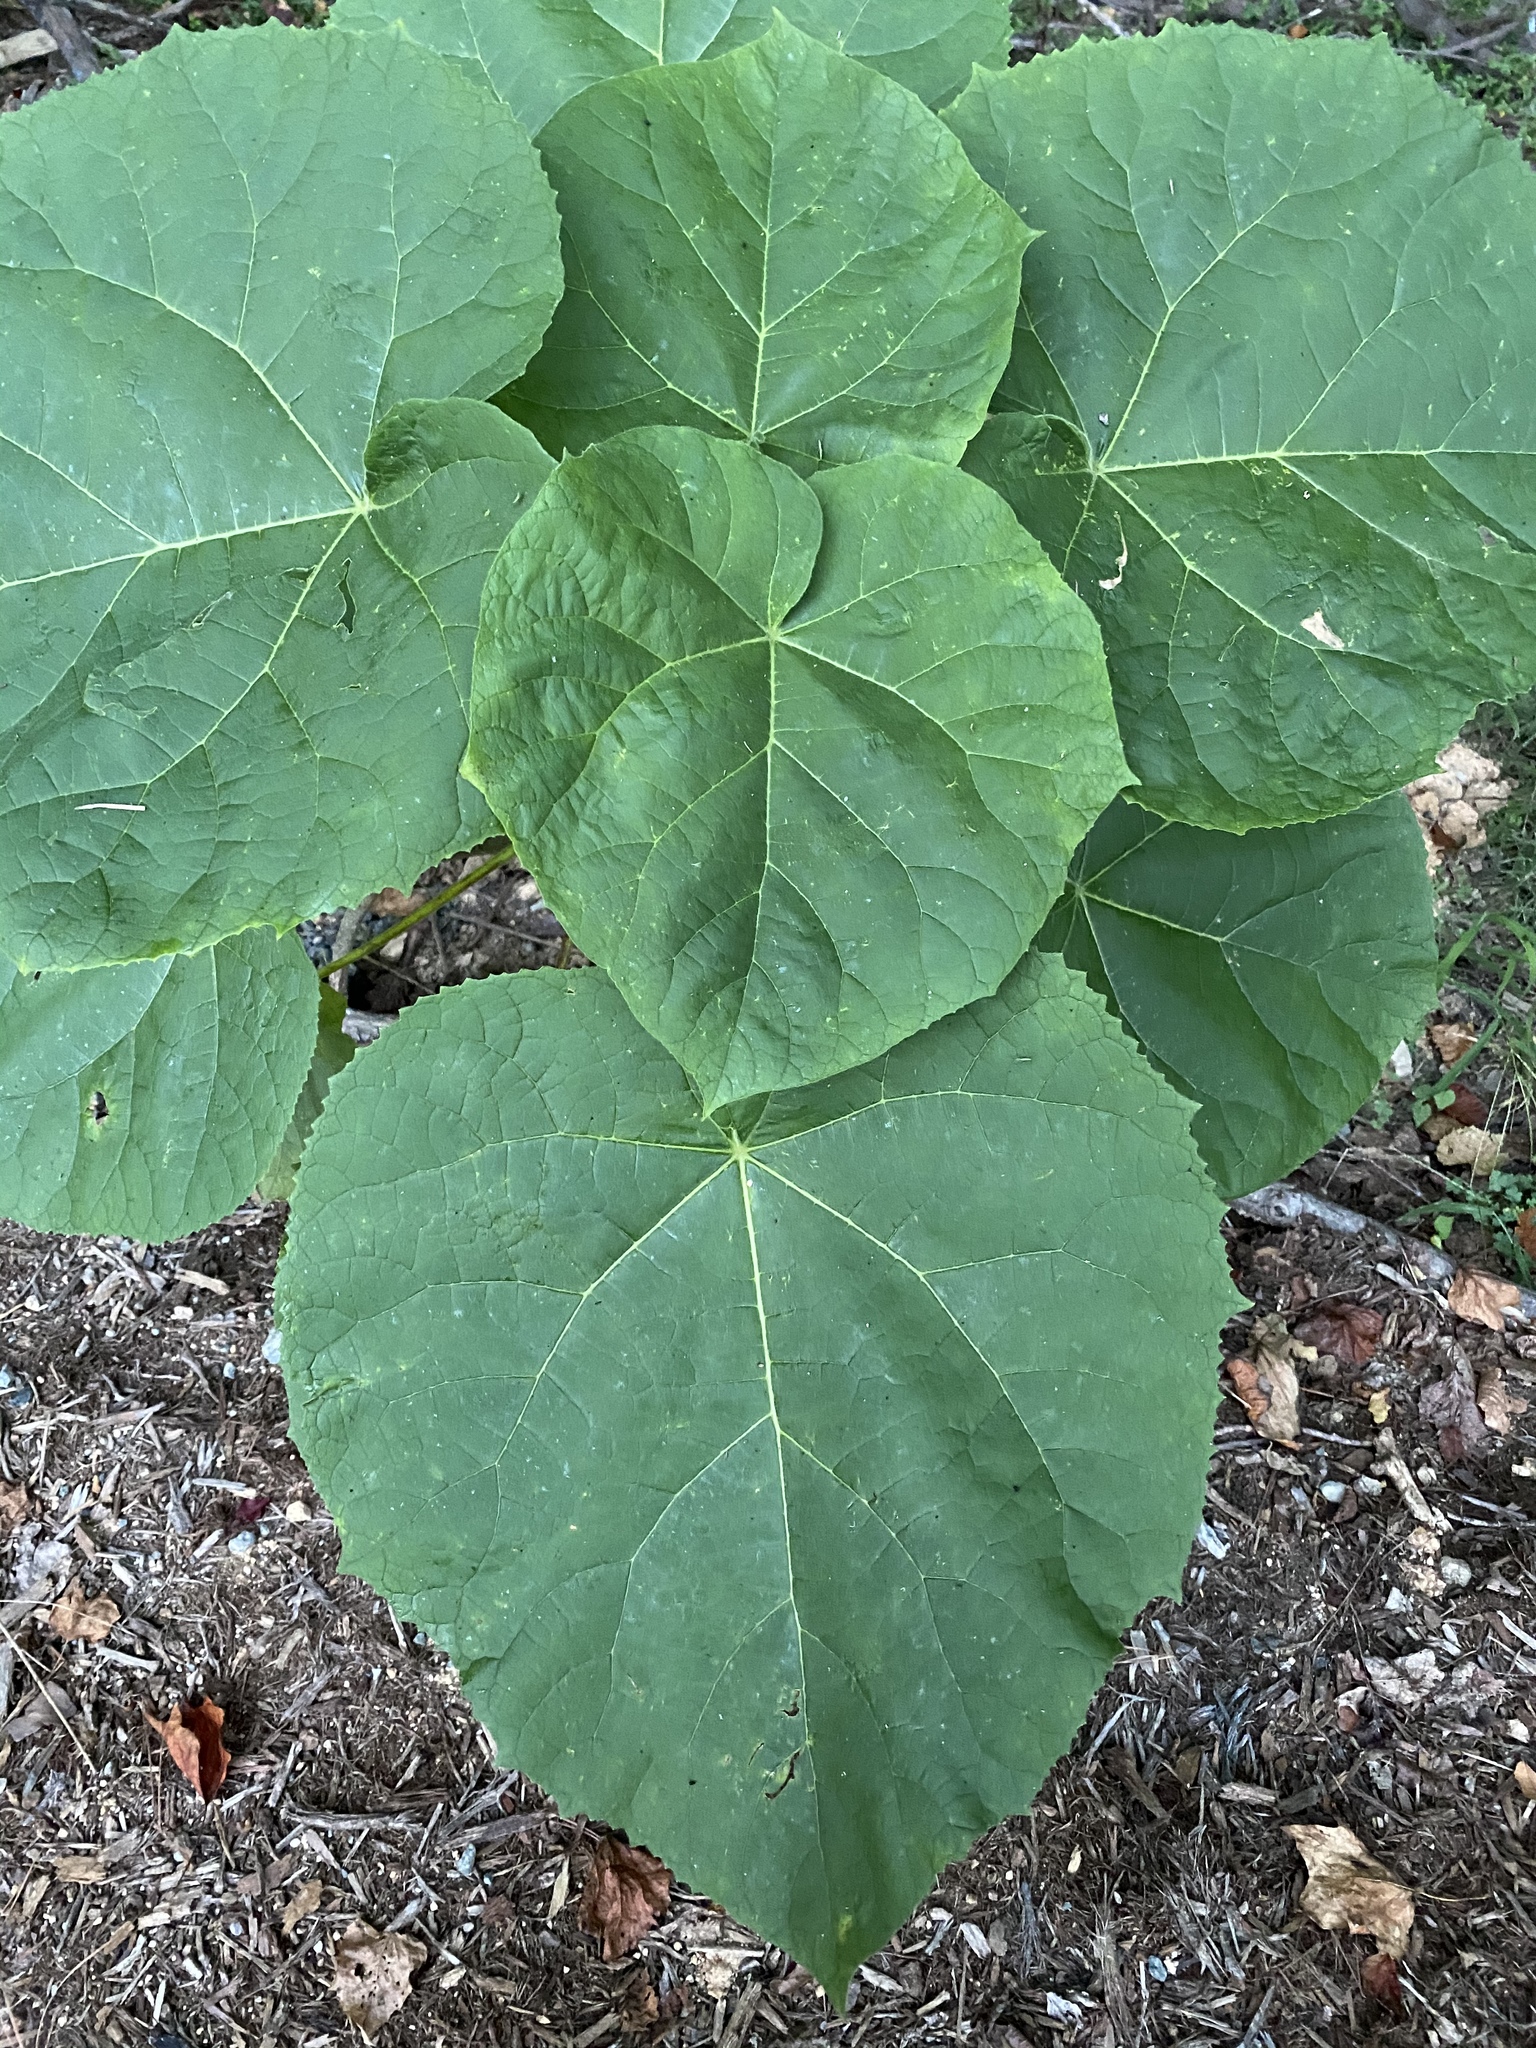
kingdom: Plantae
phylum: Tracheophyta
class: Magnoliopsida
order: Lamiales
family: Paulowniaceae
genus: Paulownia
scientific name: Paulownia tomentosa
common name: Foxglove-tree
